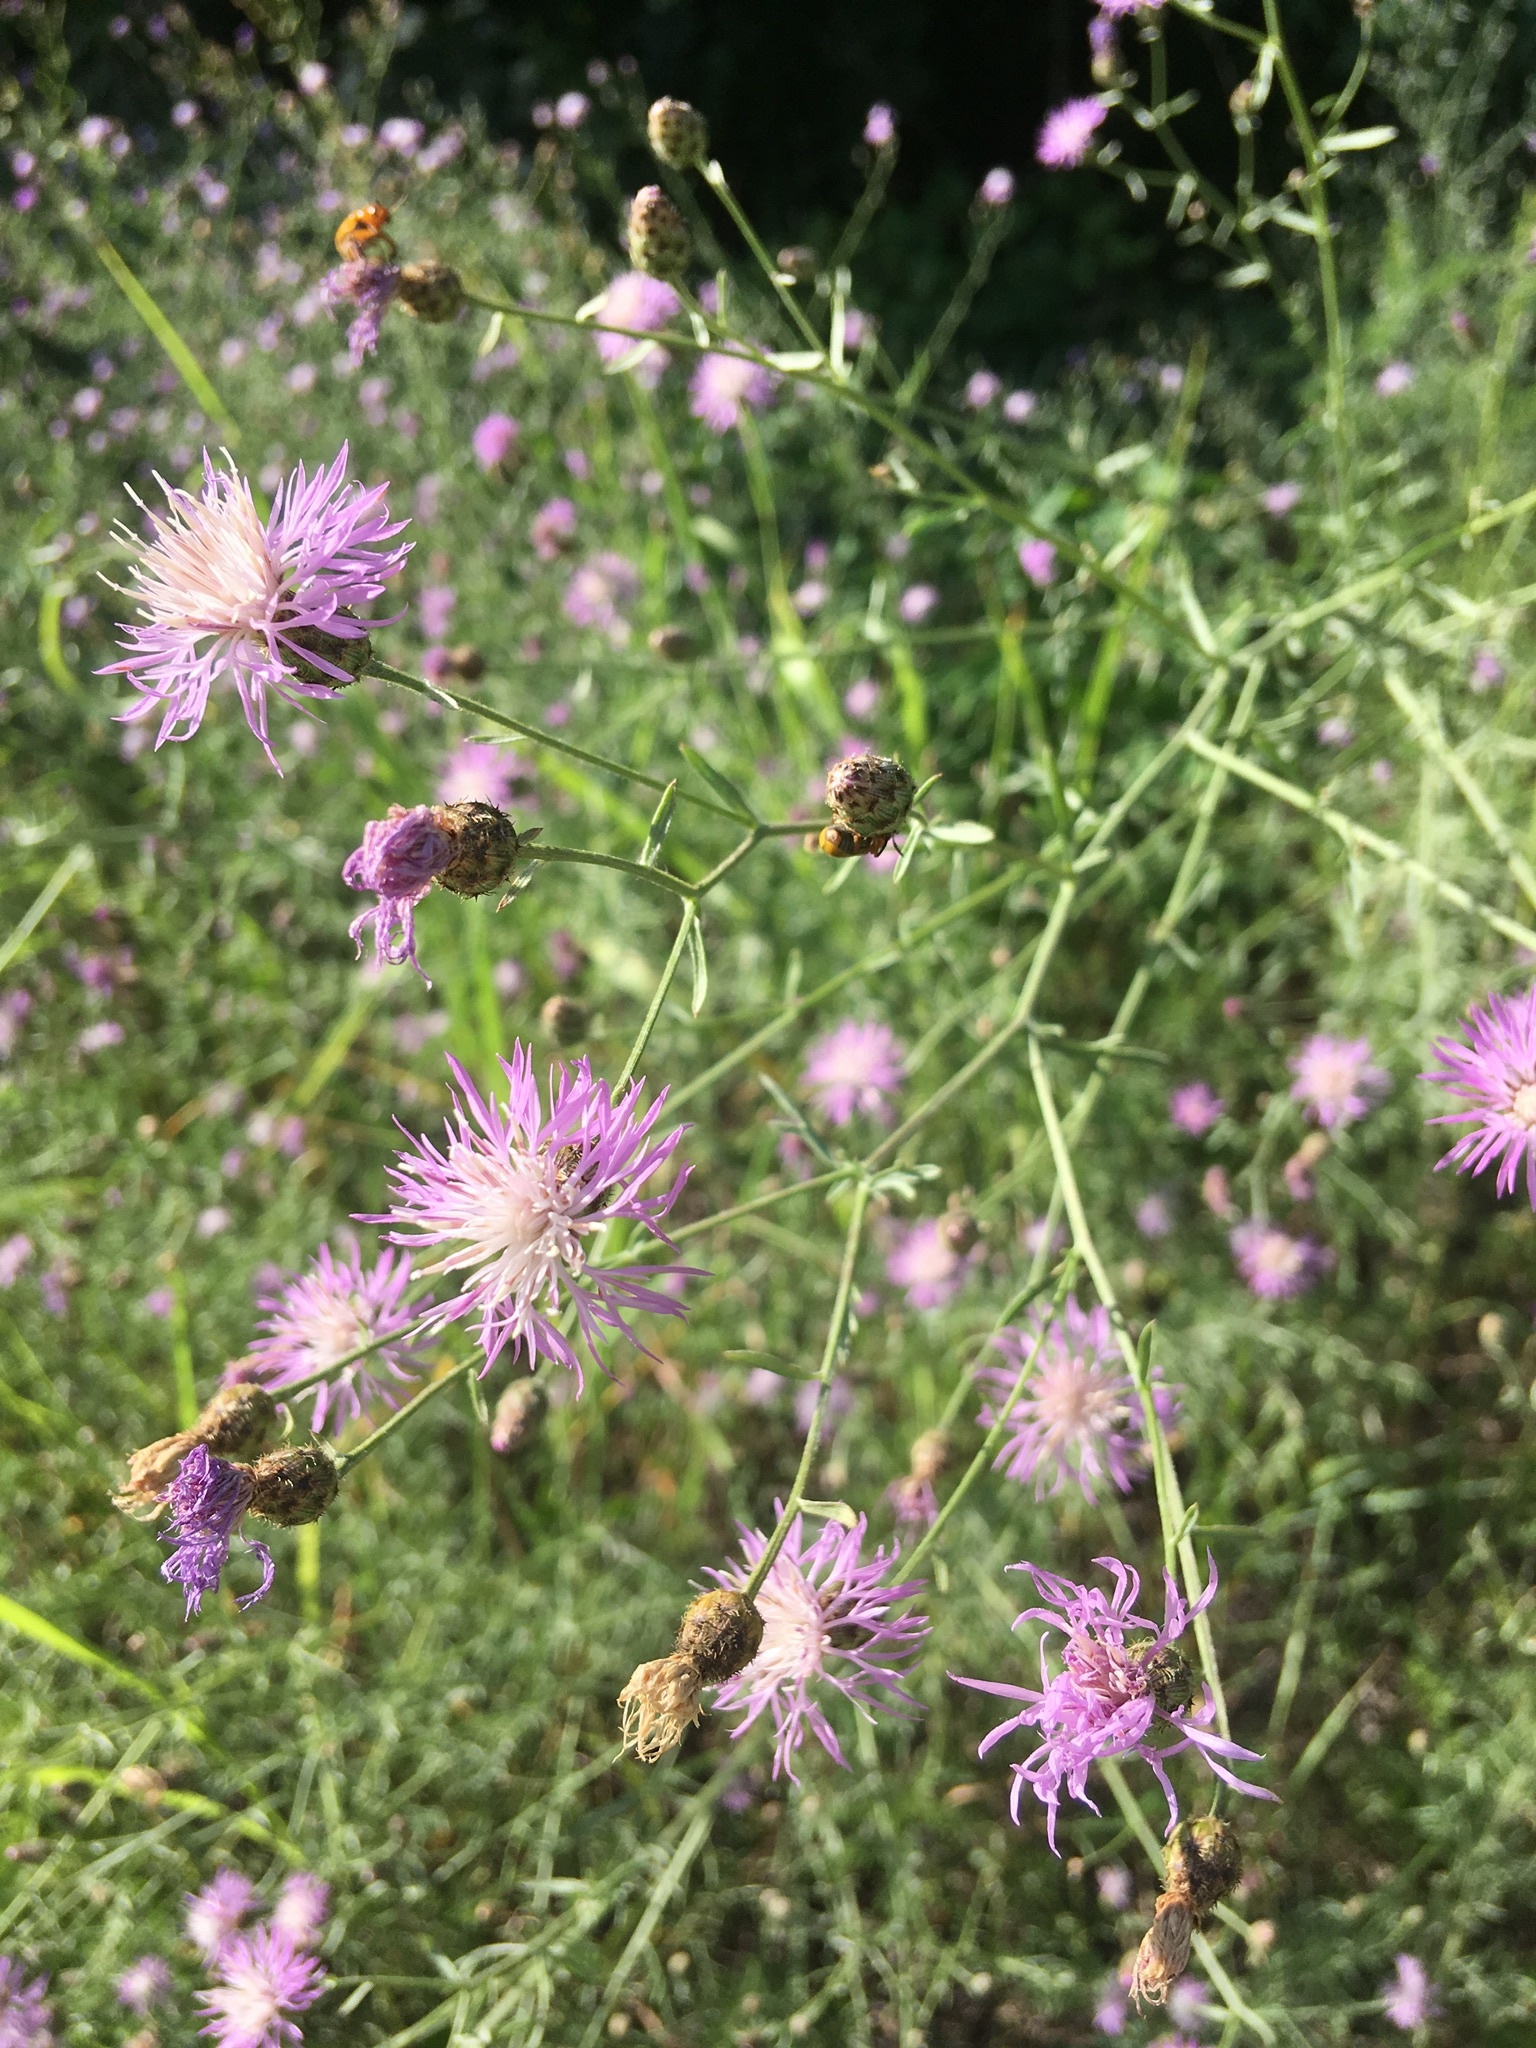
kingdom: Plantae
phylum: Tracheophyta
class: Magnoliopsida
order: Asterales
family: Asteraceae
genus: Centaurea
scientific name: Centaurea stoebe
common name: Spotted knapweed
